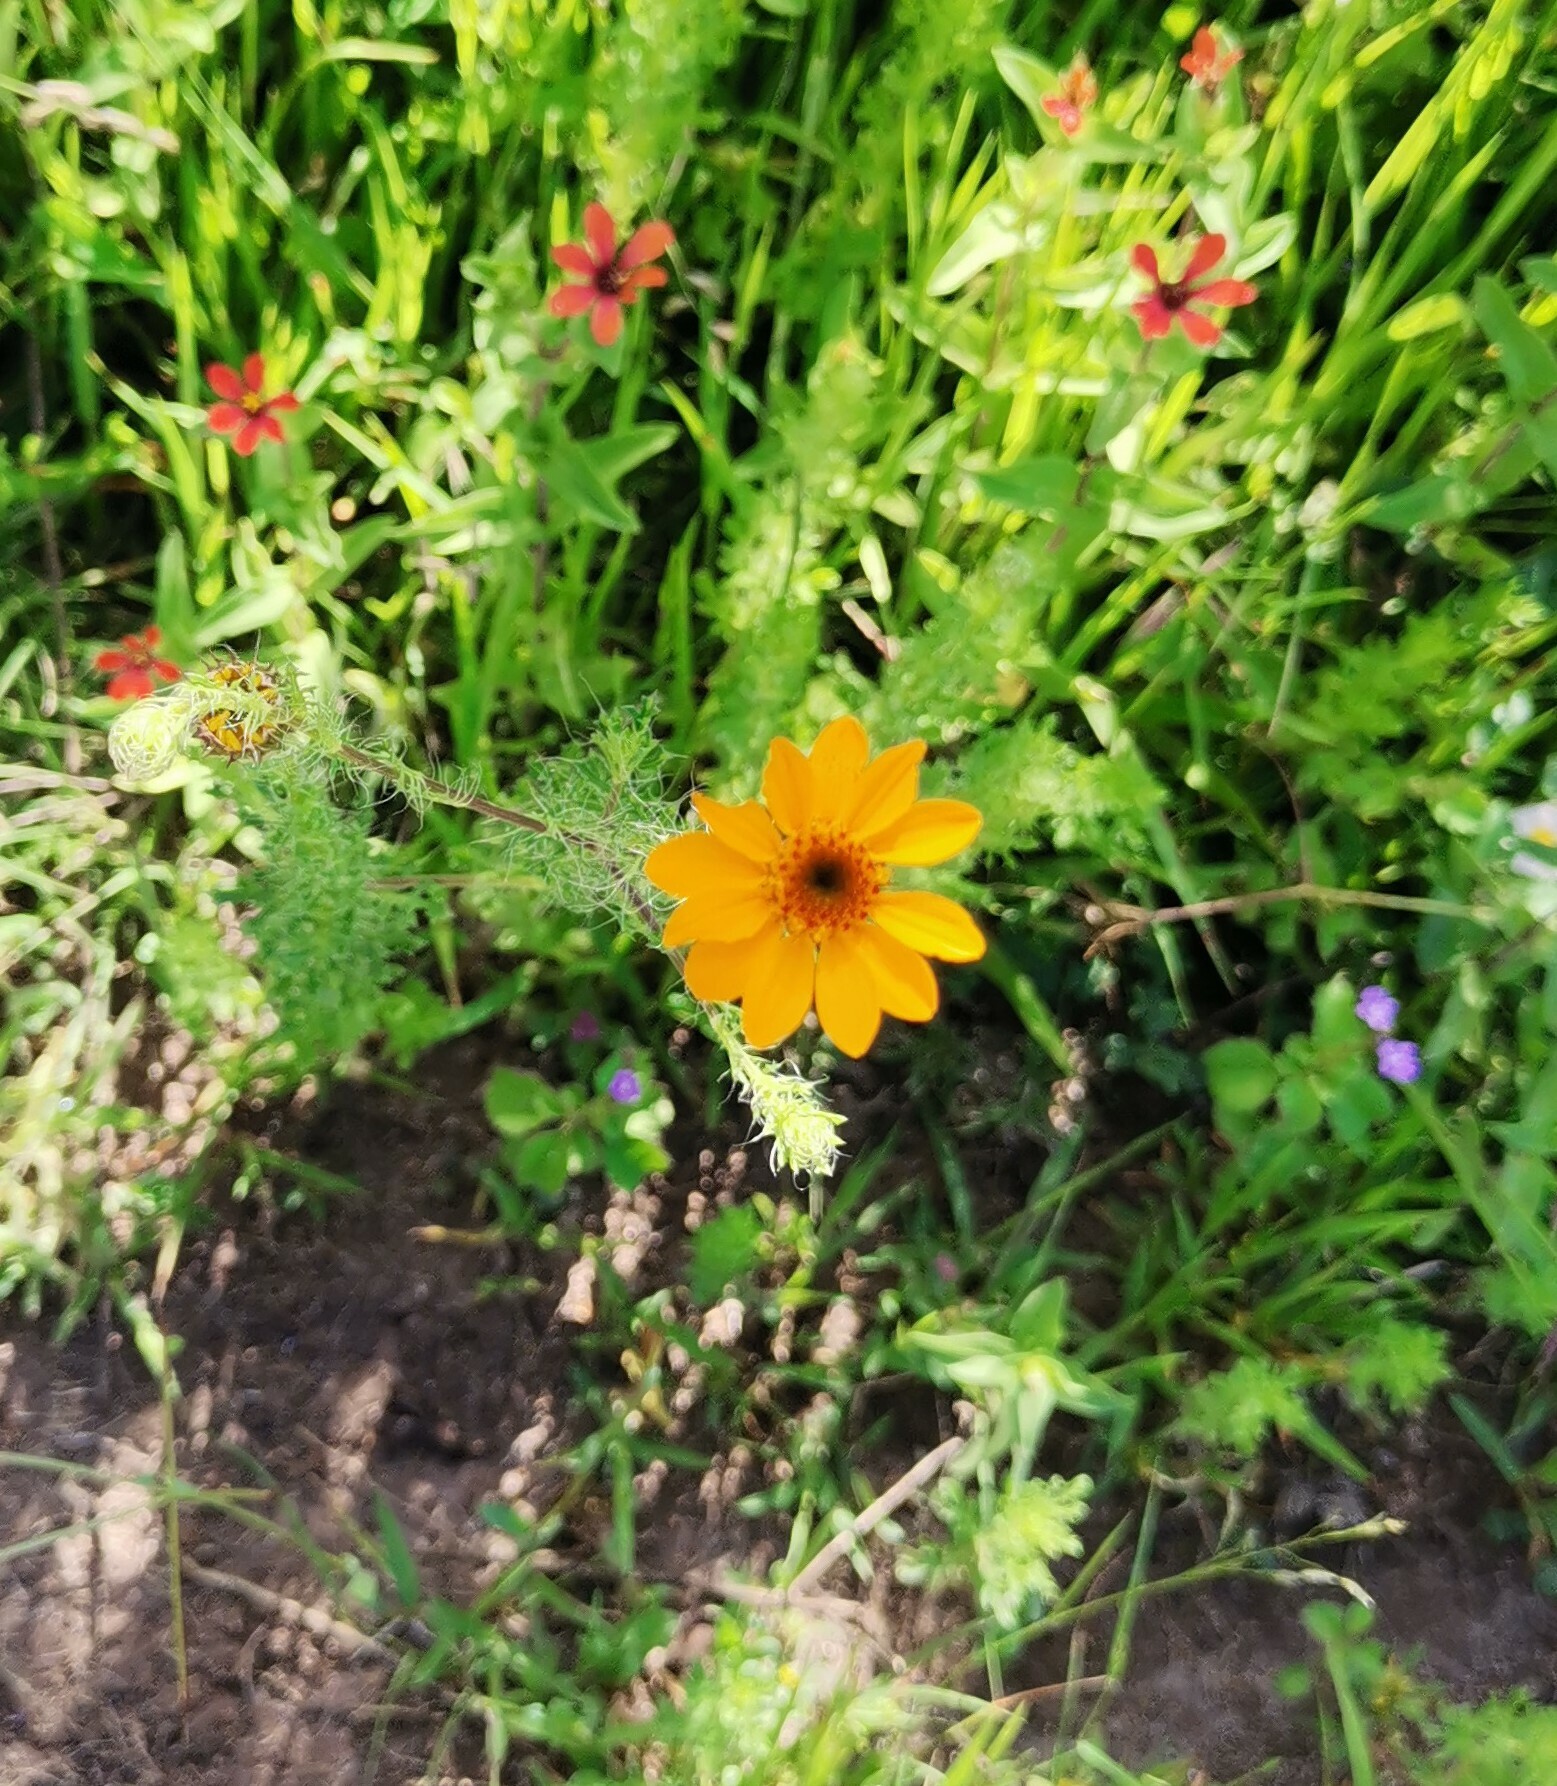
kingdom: Plantae
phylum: Tracheophyta
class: Magnoliopsida
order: Asterales
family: Asteraceae
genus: Adenophyllum
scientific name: Adenophyllum cancellatum
